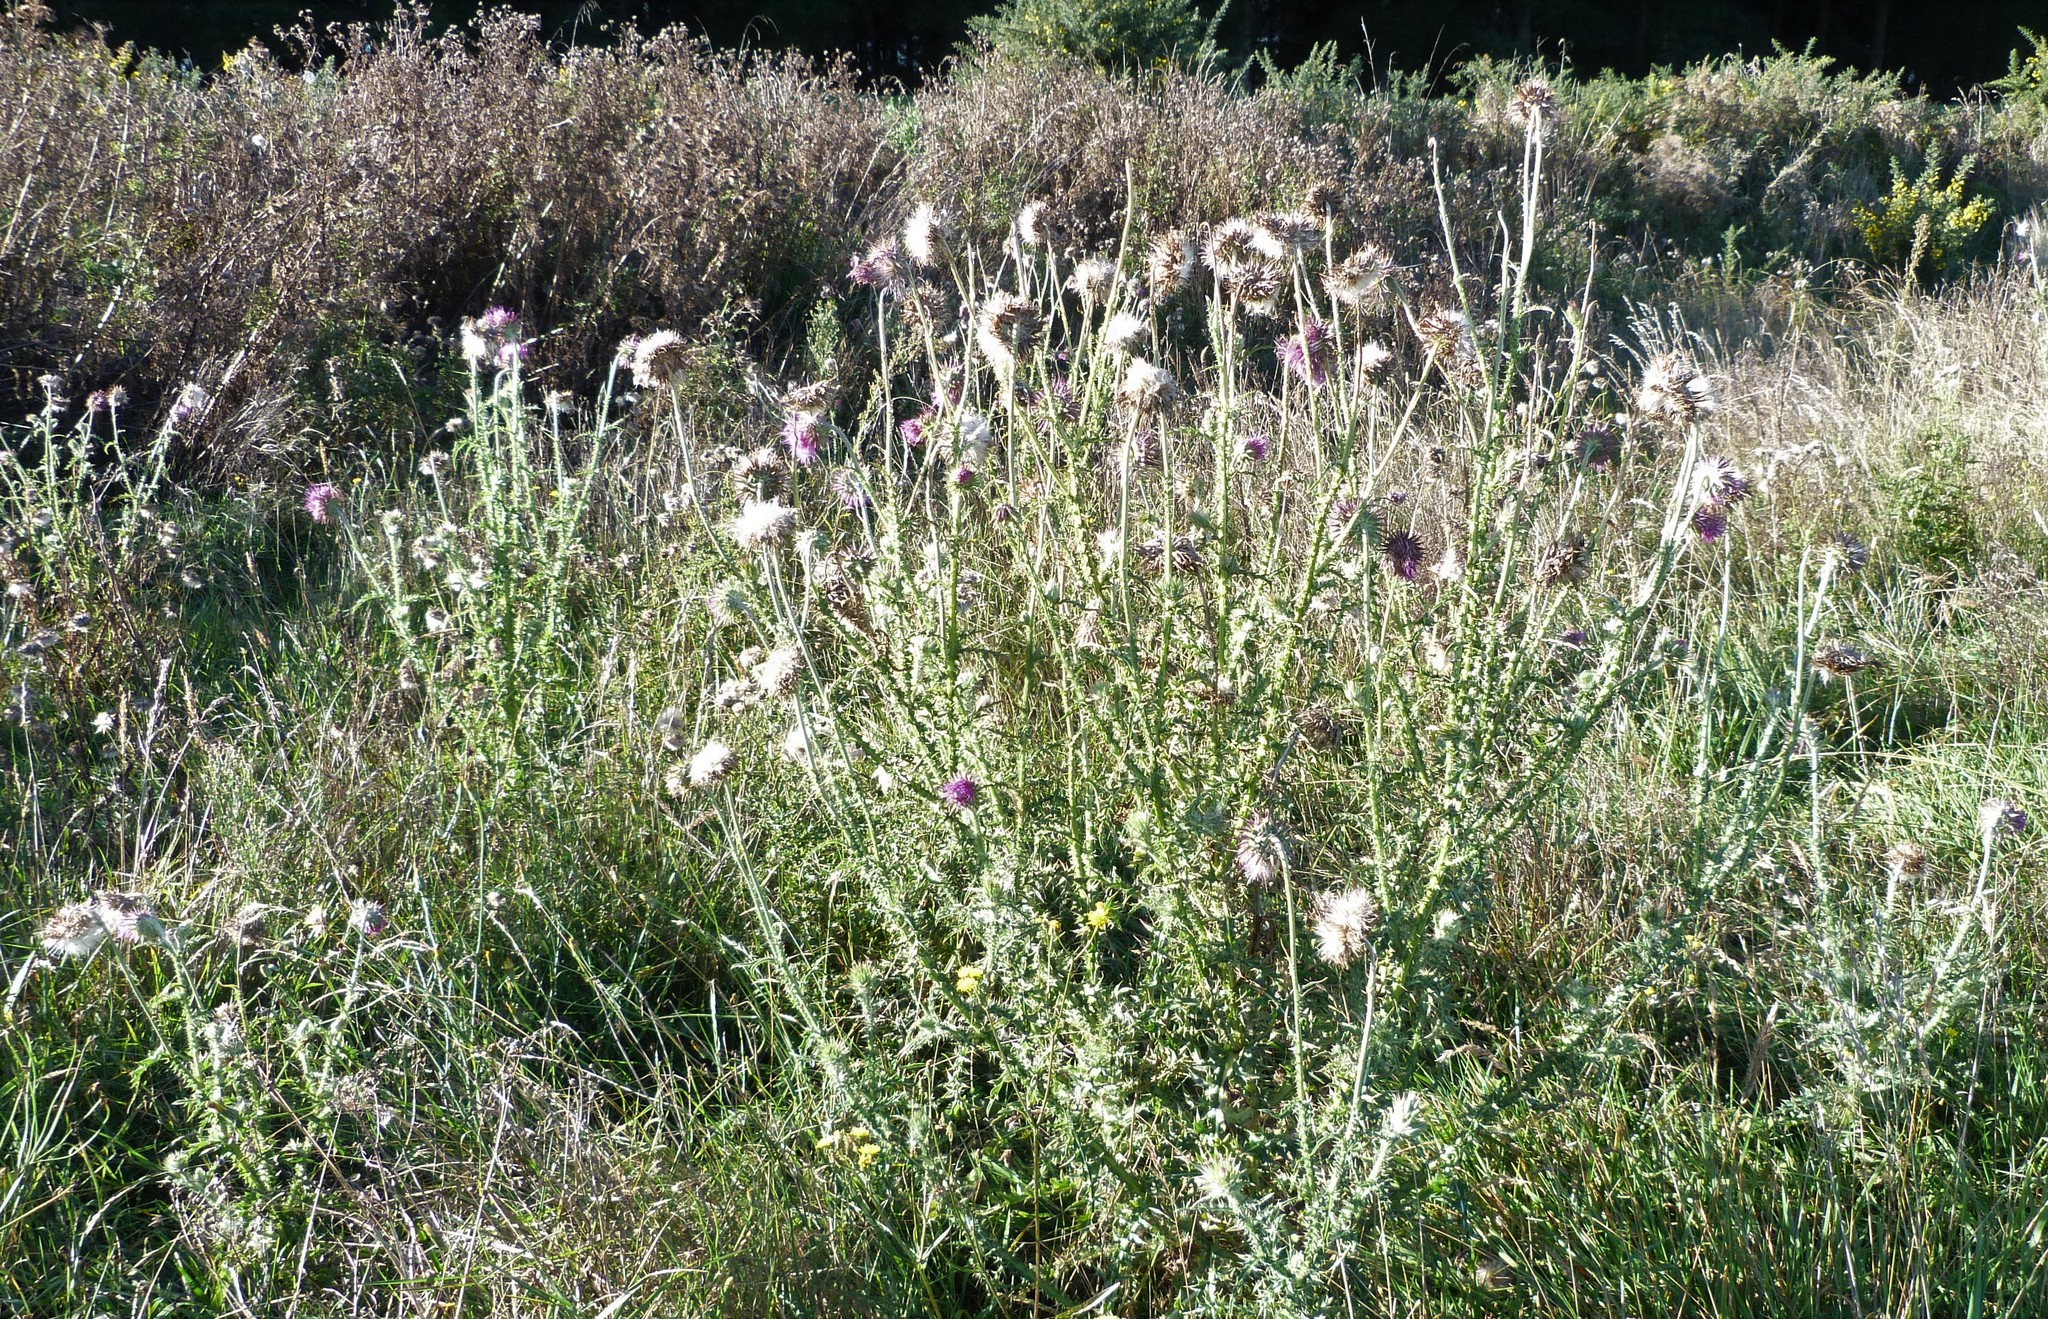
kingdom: Plantae
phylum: Tracheophyta
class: Magnoliopsida
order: Asterales
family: Asteraceae
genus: Carduus
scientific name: Carduus nutans
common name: Musk thistle
